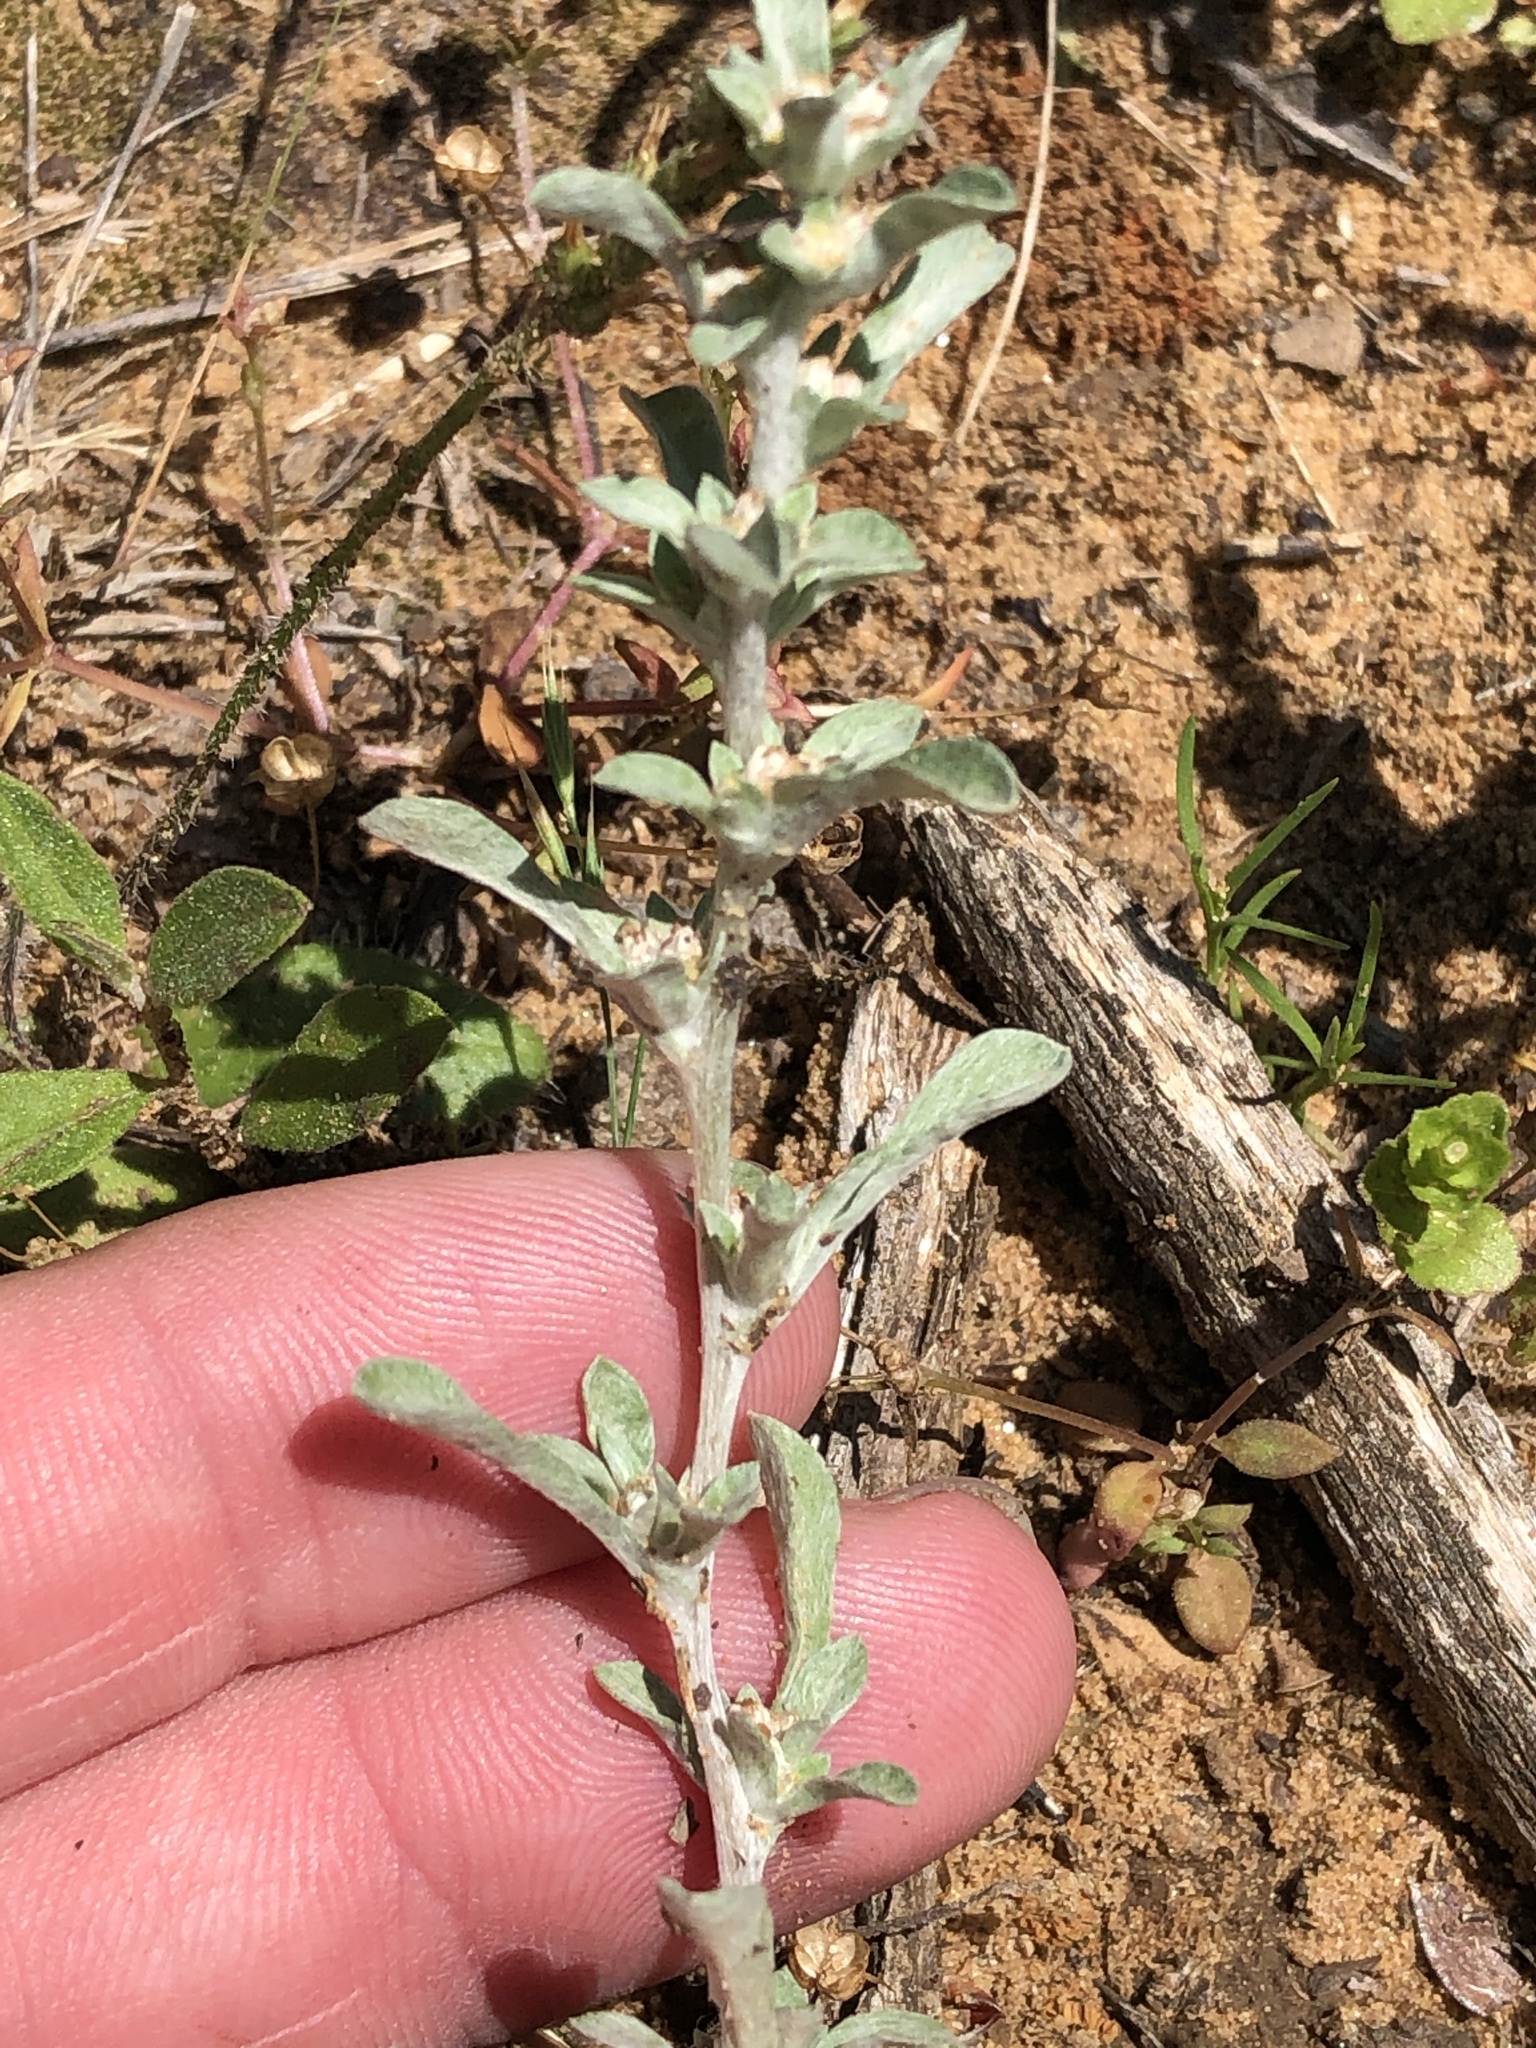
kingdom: Plantae
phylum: Tracheophyta
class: Magnoliopsida
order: Asterales
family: Asteraceae
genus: Diaperia
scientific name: Diaperia candida
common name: Silver rabbit-tobacco
